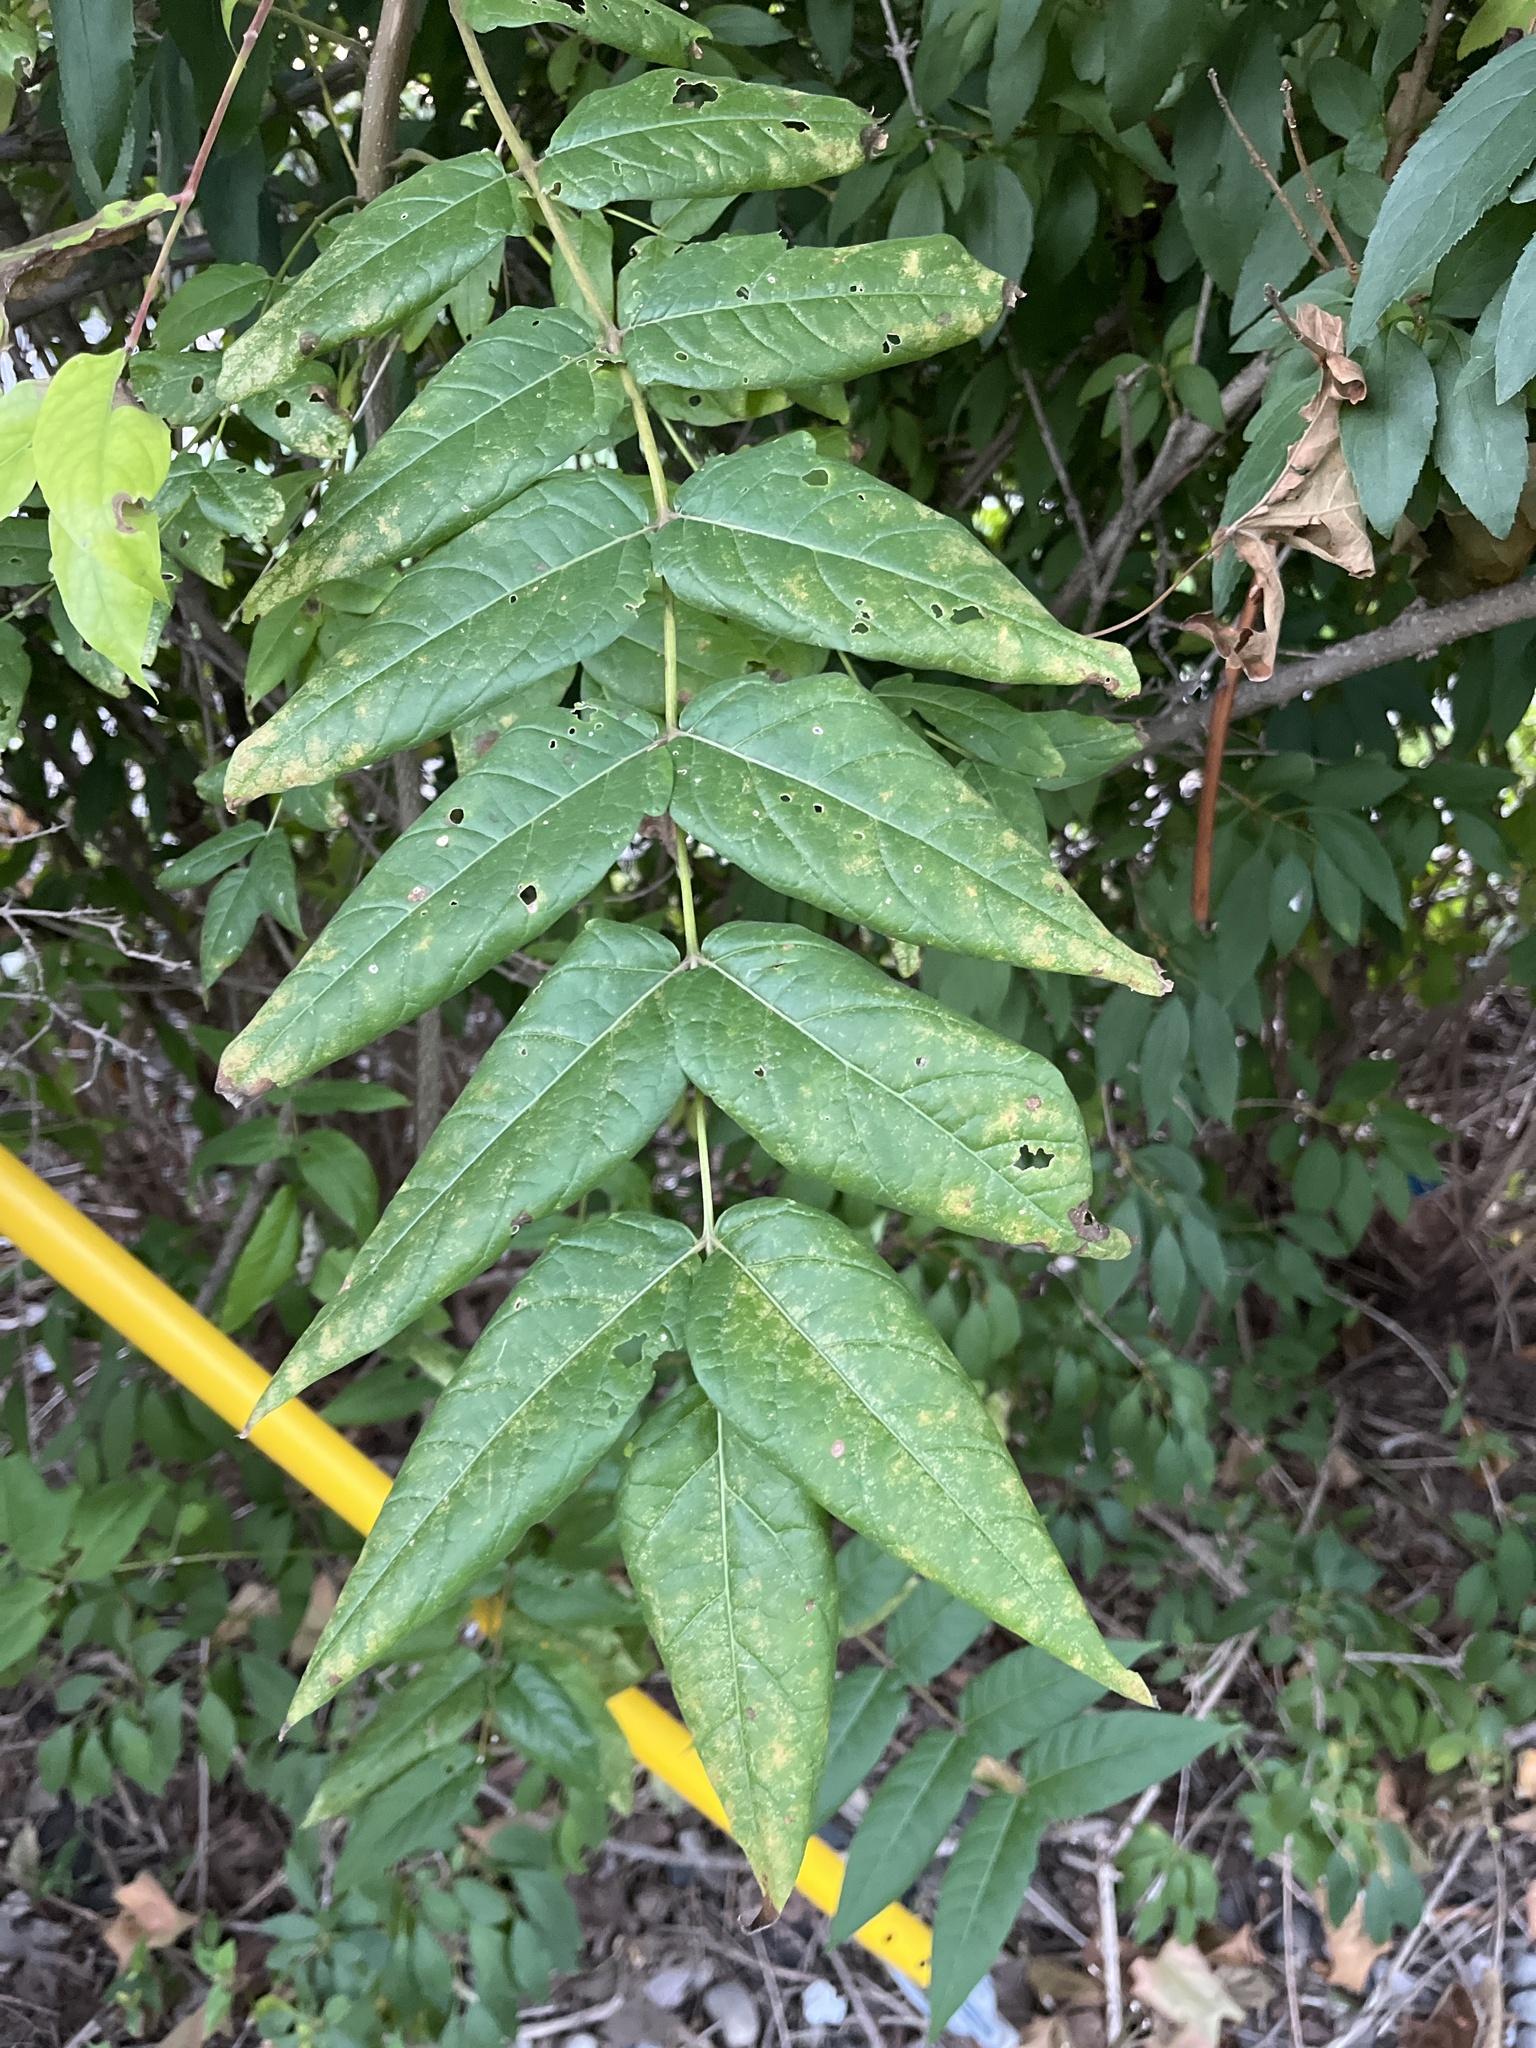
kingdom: Plantae
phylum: Tracheophyta
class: Magnoliopsida
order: Sapindales
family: Simaroubaceae
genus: Ailanthus
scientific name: Ailanthus altissima
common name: Tree-of-heaven
